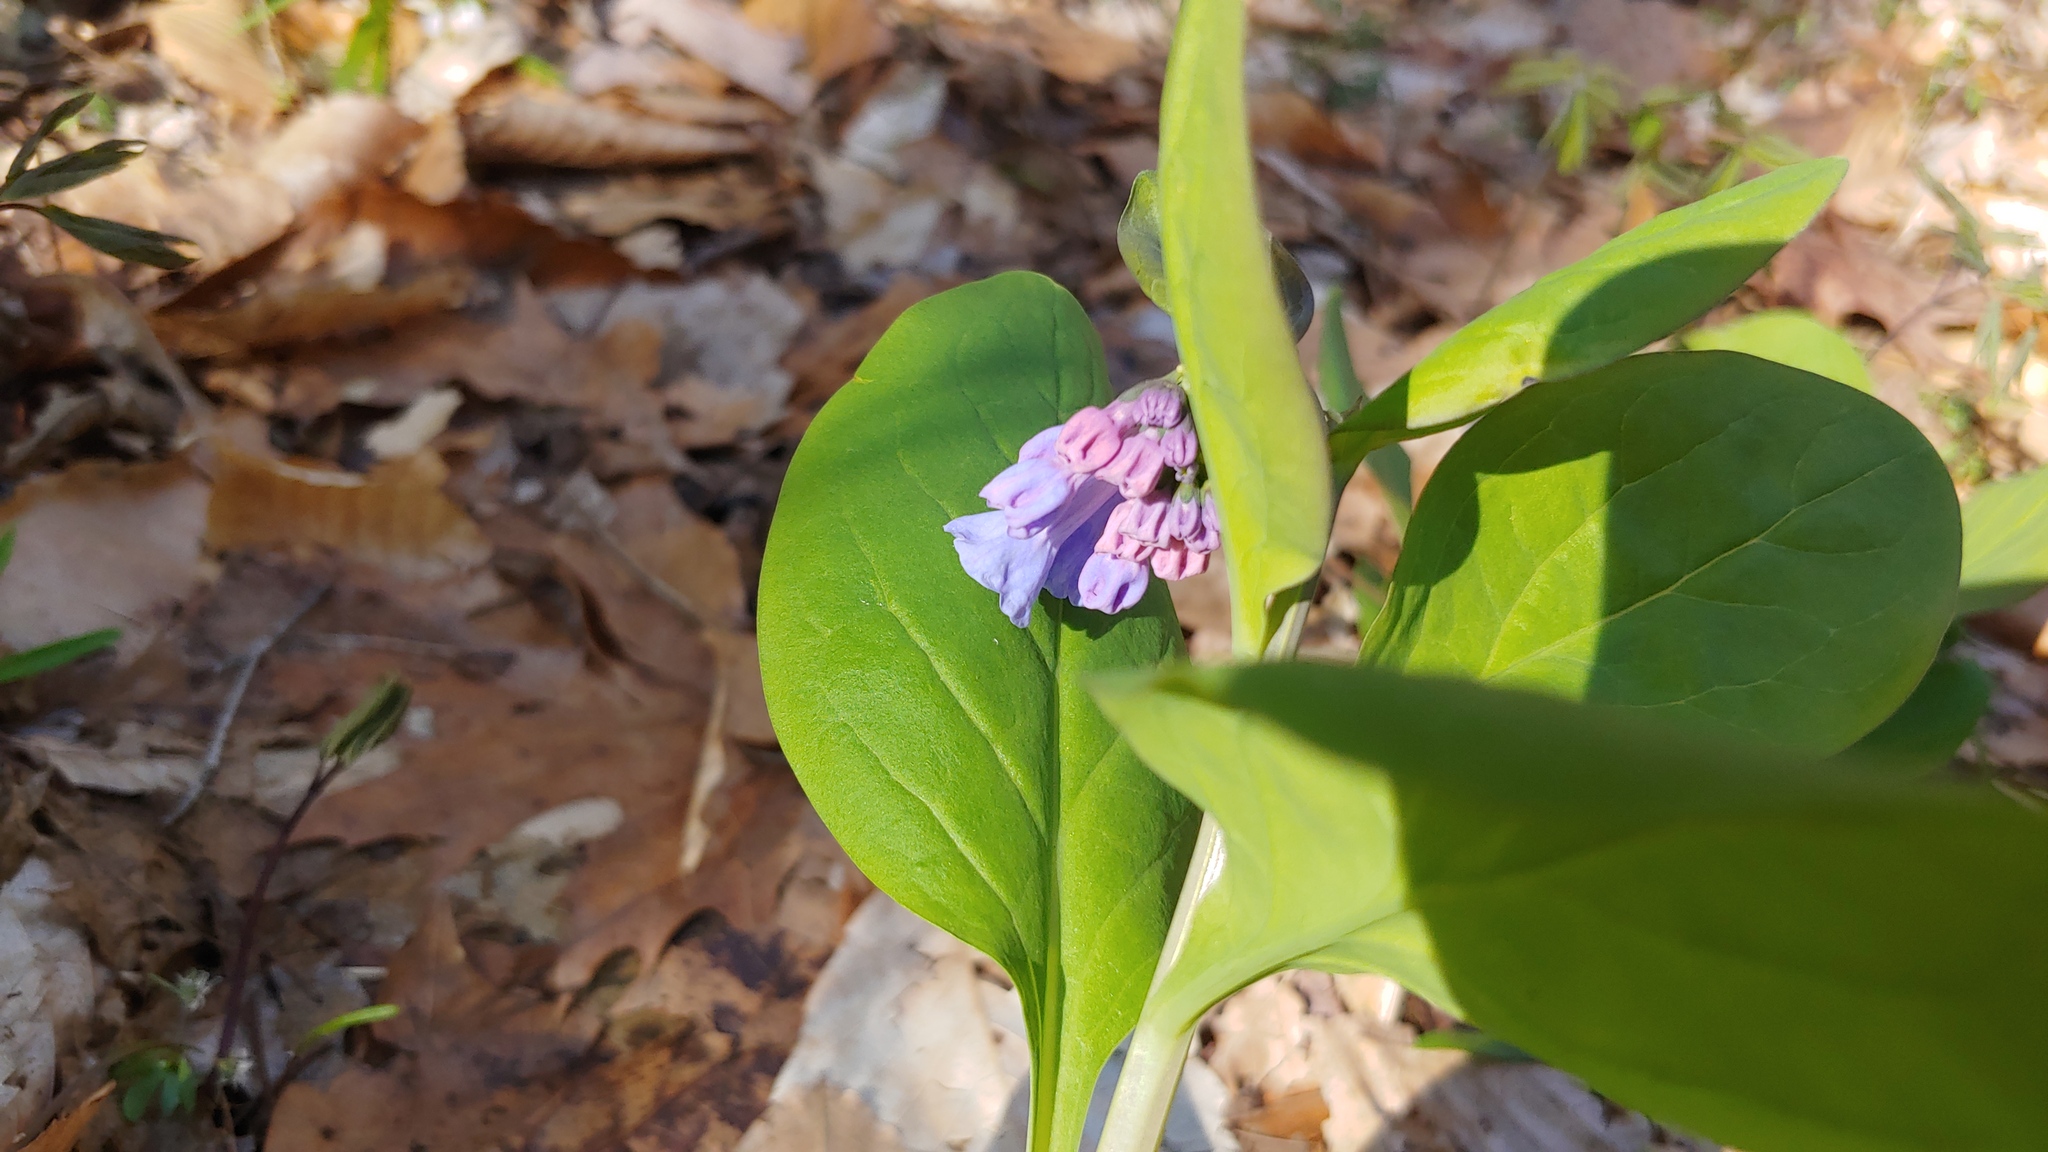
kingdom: Plantae
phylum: Tracheophyta
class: Magnoliopsida
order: Boraginales
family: Boraginaceae
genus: Mertensia
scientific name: Mertensia virginica
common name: Virginia bluebells
